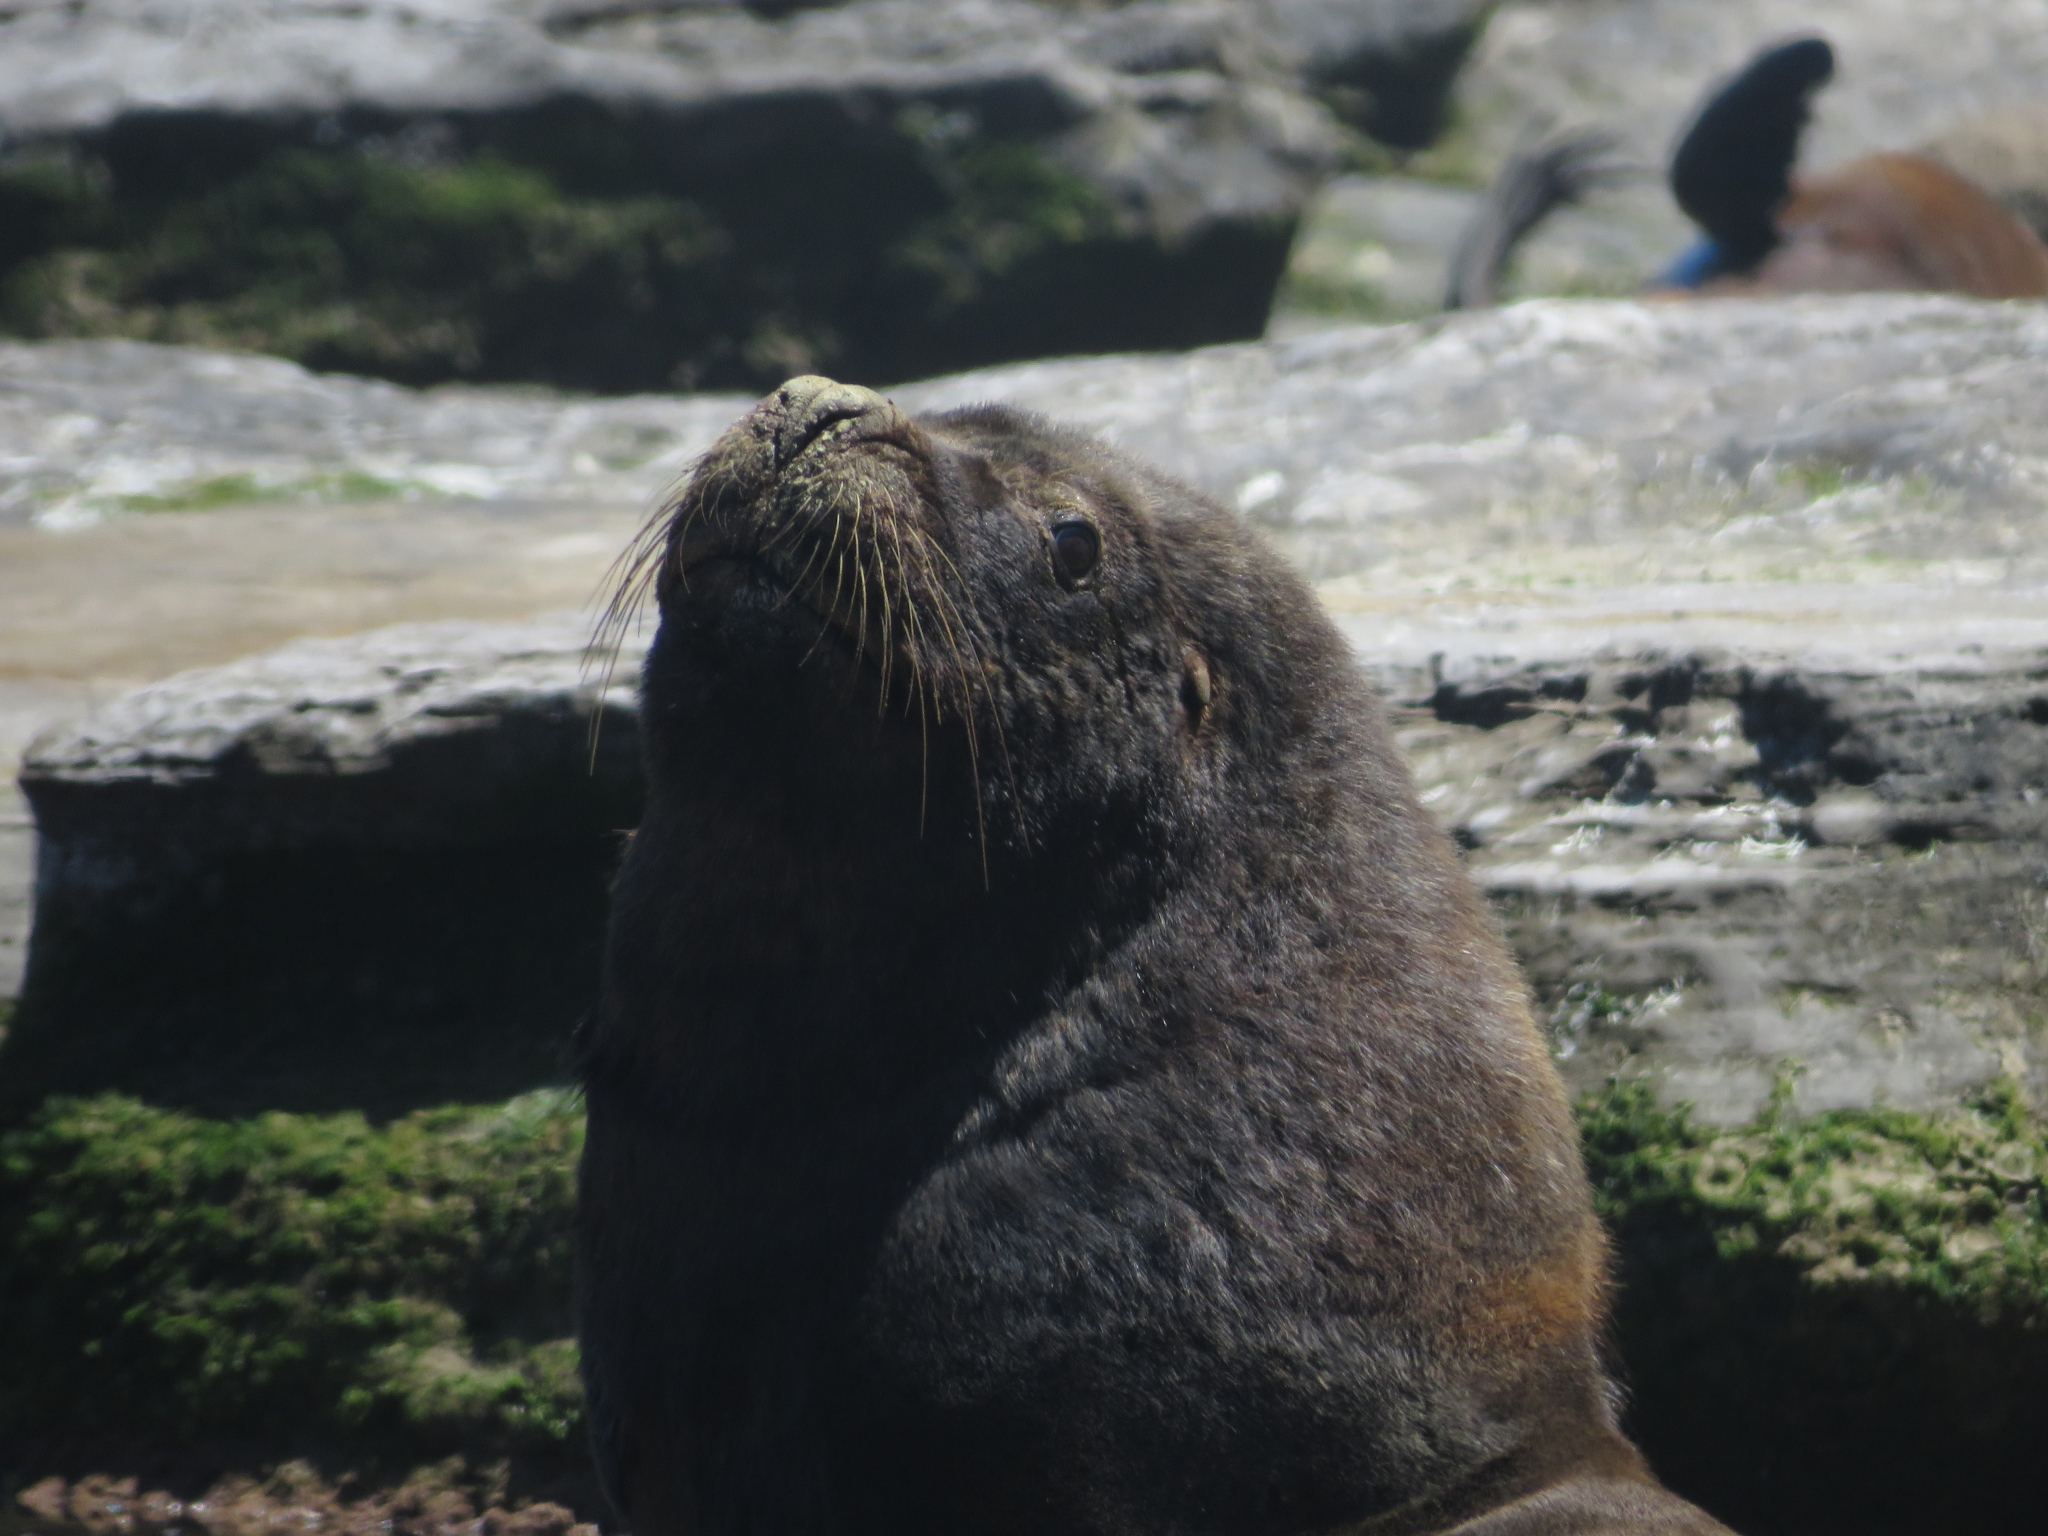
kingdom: Animalia
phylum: Chordata
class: Mammalia
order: Carnivora
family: Otariidae
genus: Otaria
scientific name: Otaria byronia
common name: South american sea lion
